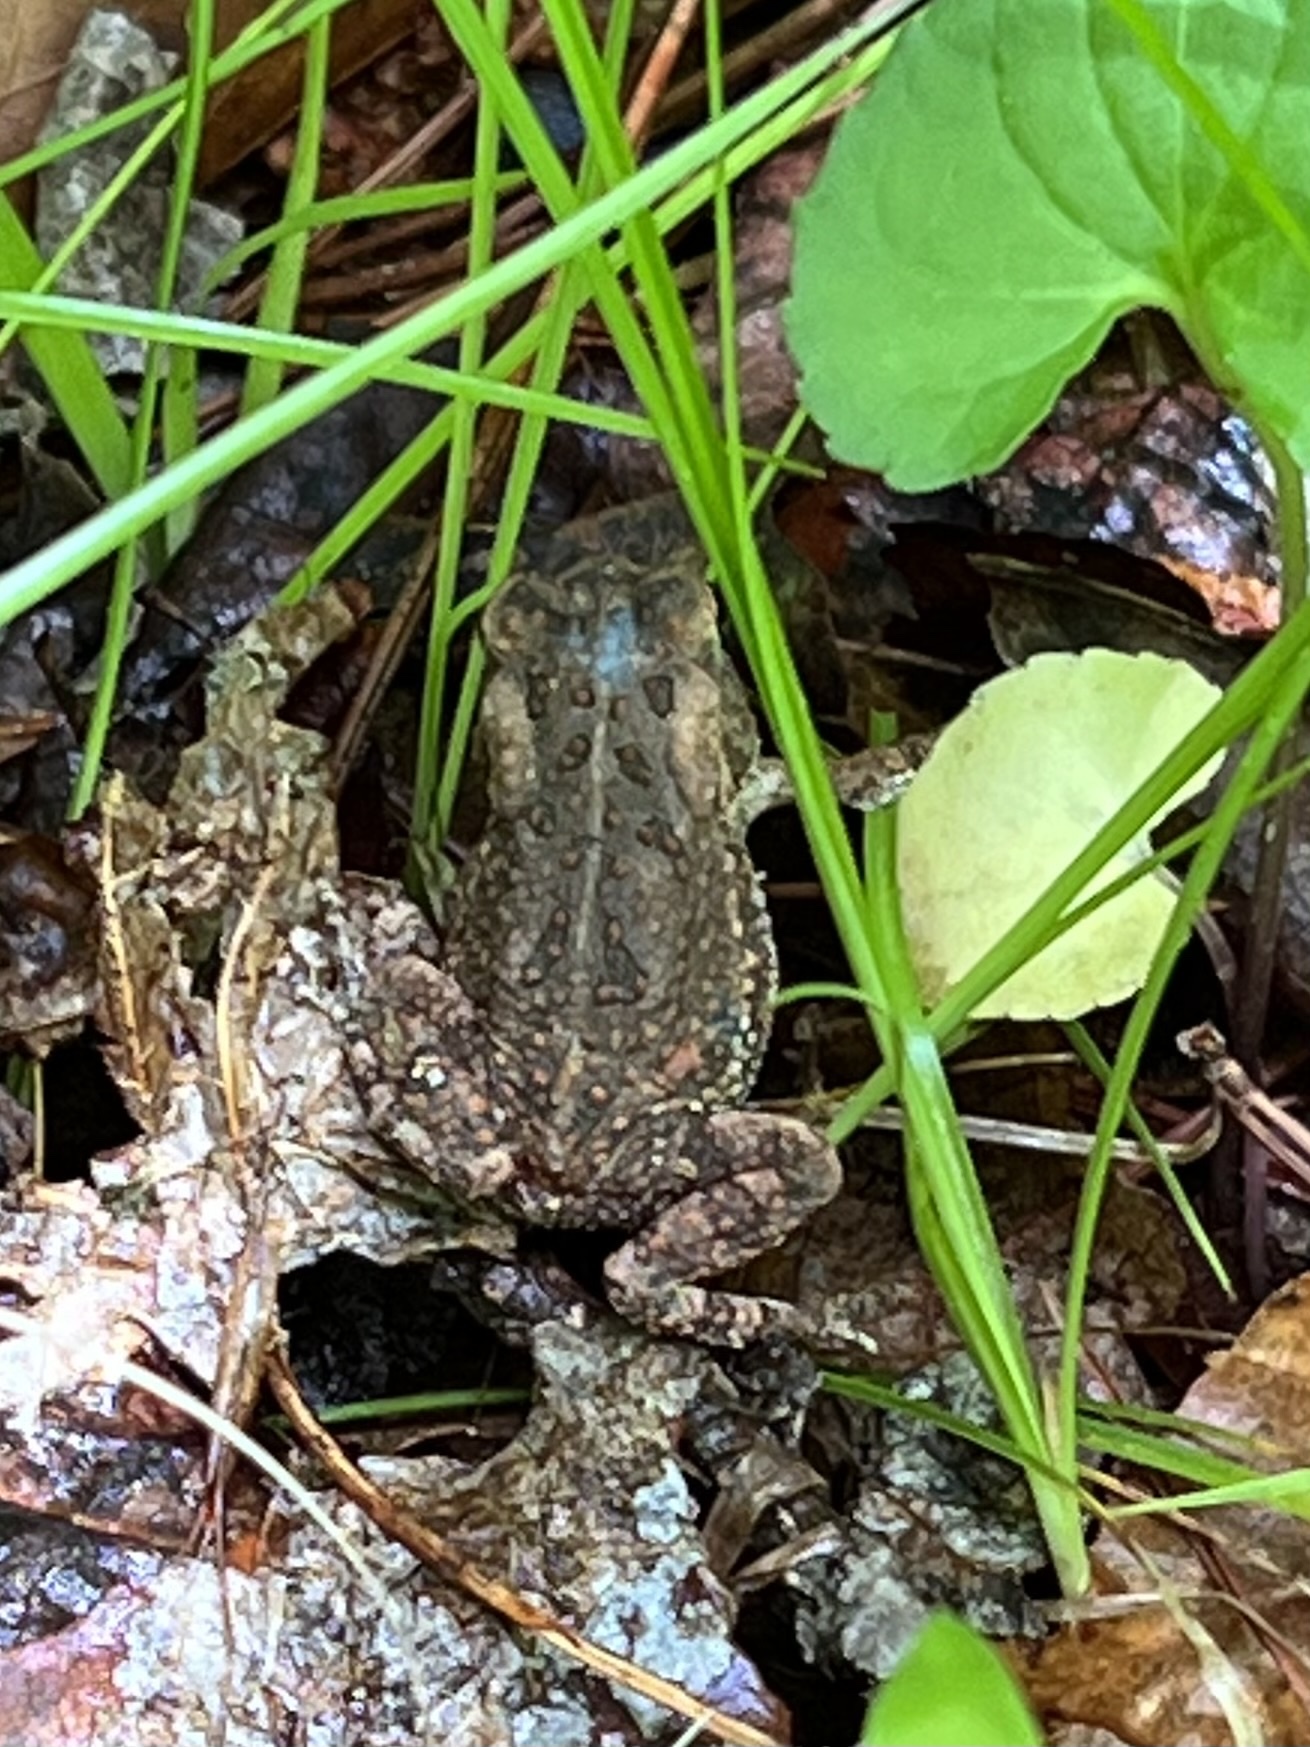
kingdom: Animalia
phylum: Chordata
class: Amphibia
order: Anura
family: Bufonidae
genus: Anaxyrus
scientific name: Anaxyrus fowleri
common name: Fowler's toad
